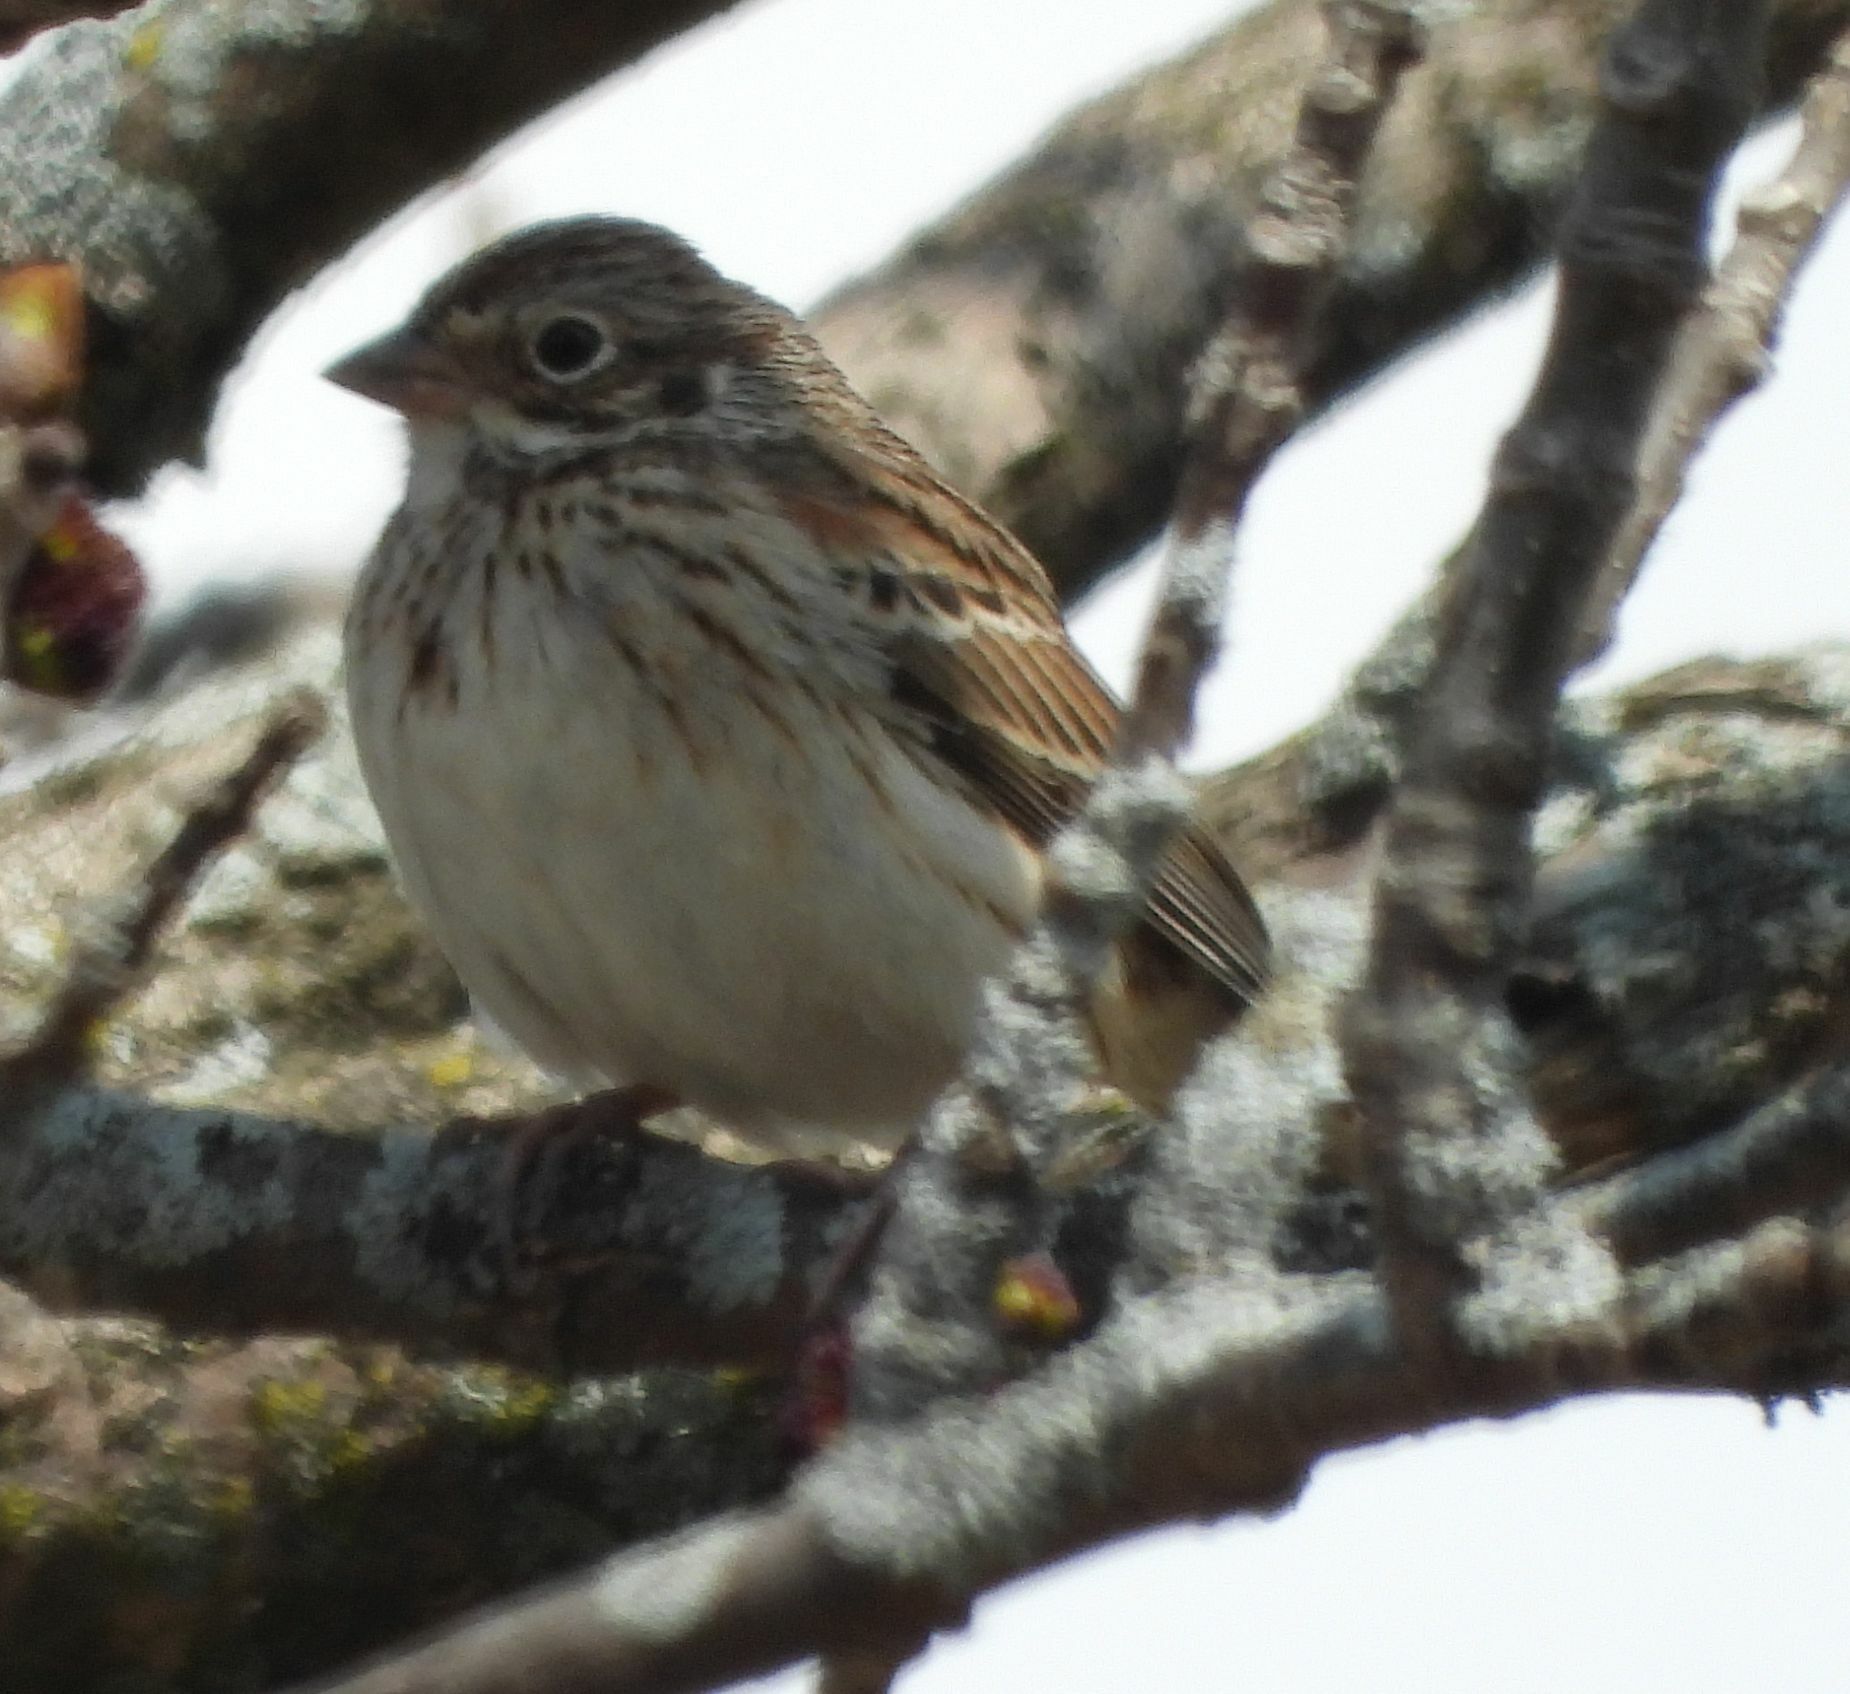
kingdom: Animalia
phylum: Chordata
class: Aves
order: Passeriformes
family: Passerellidae
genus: Pooecetes
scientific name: Pooecetes gramineus
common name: Vesper sparrow
